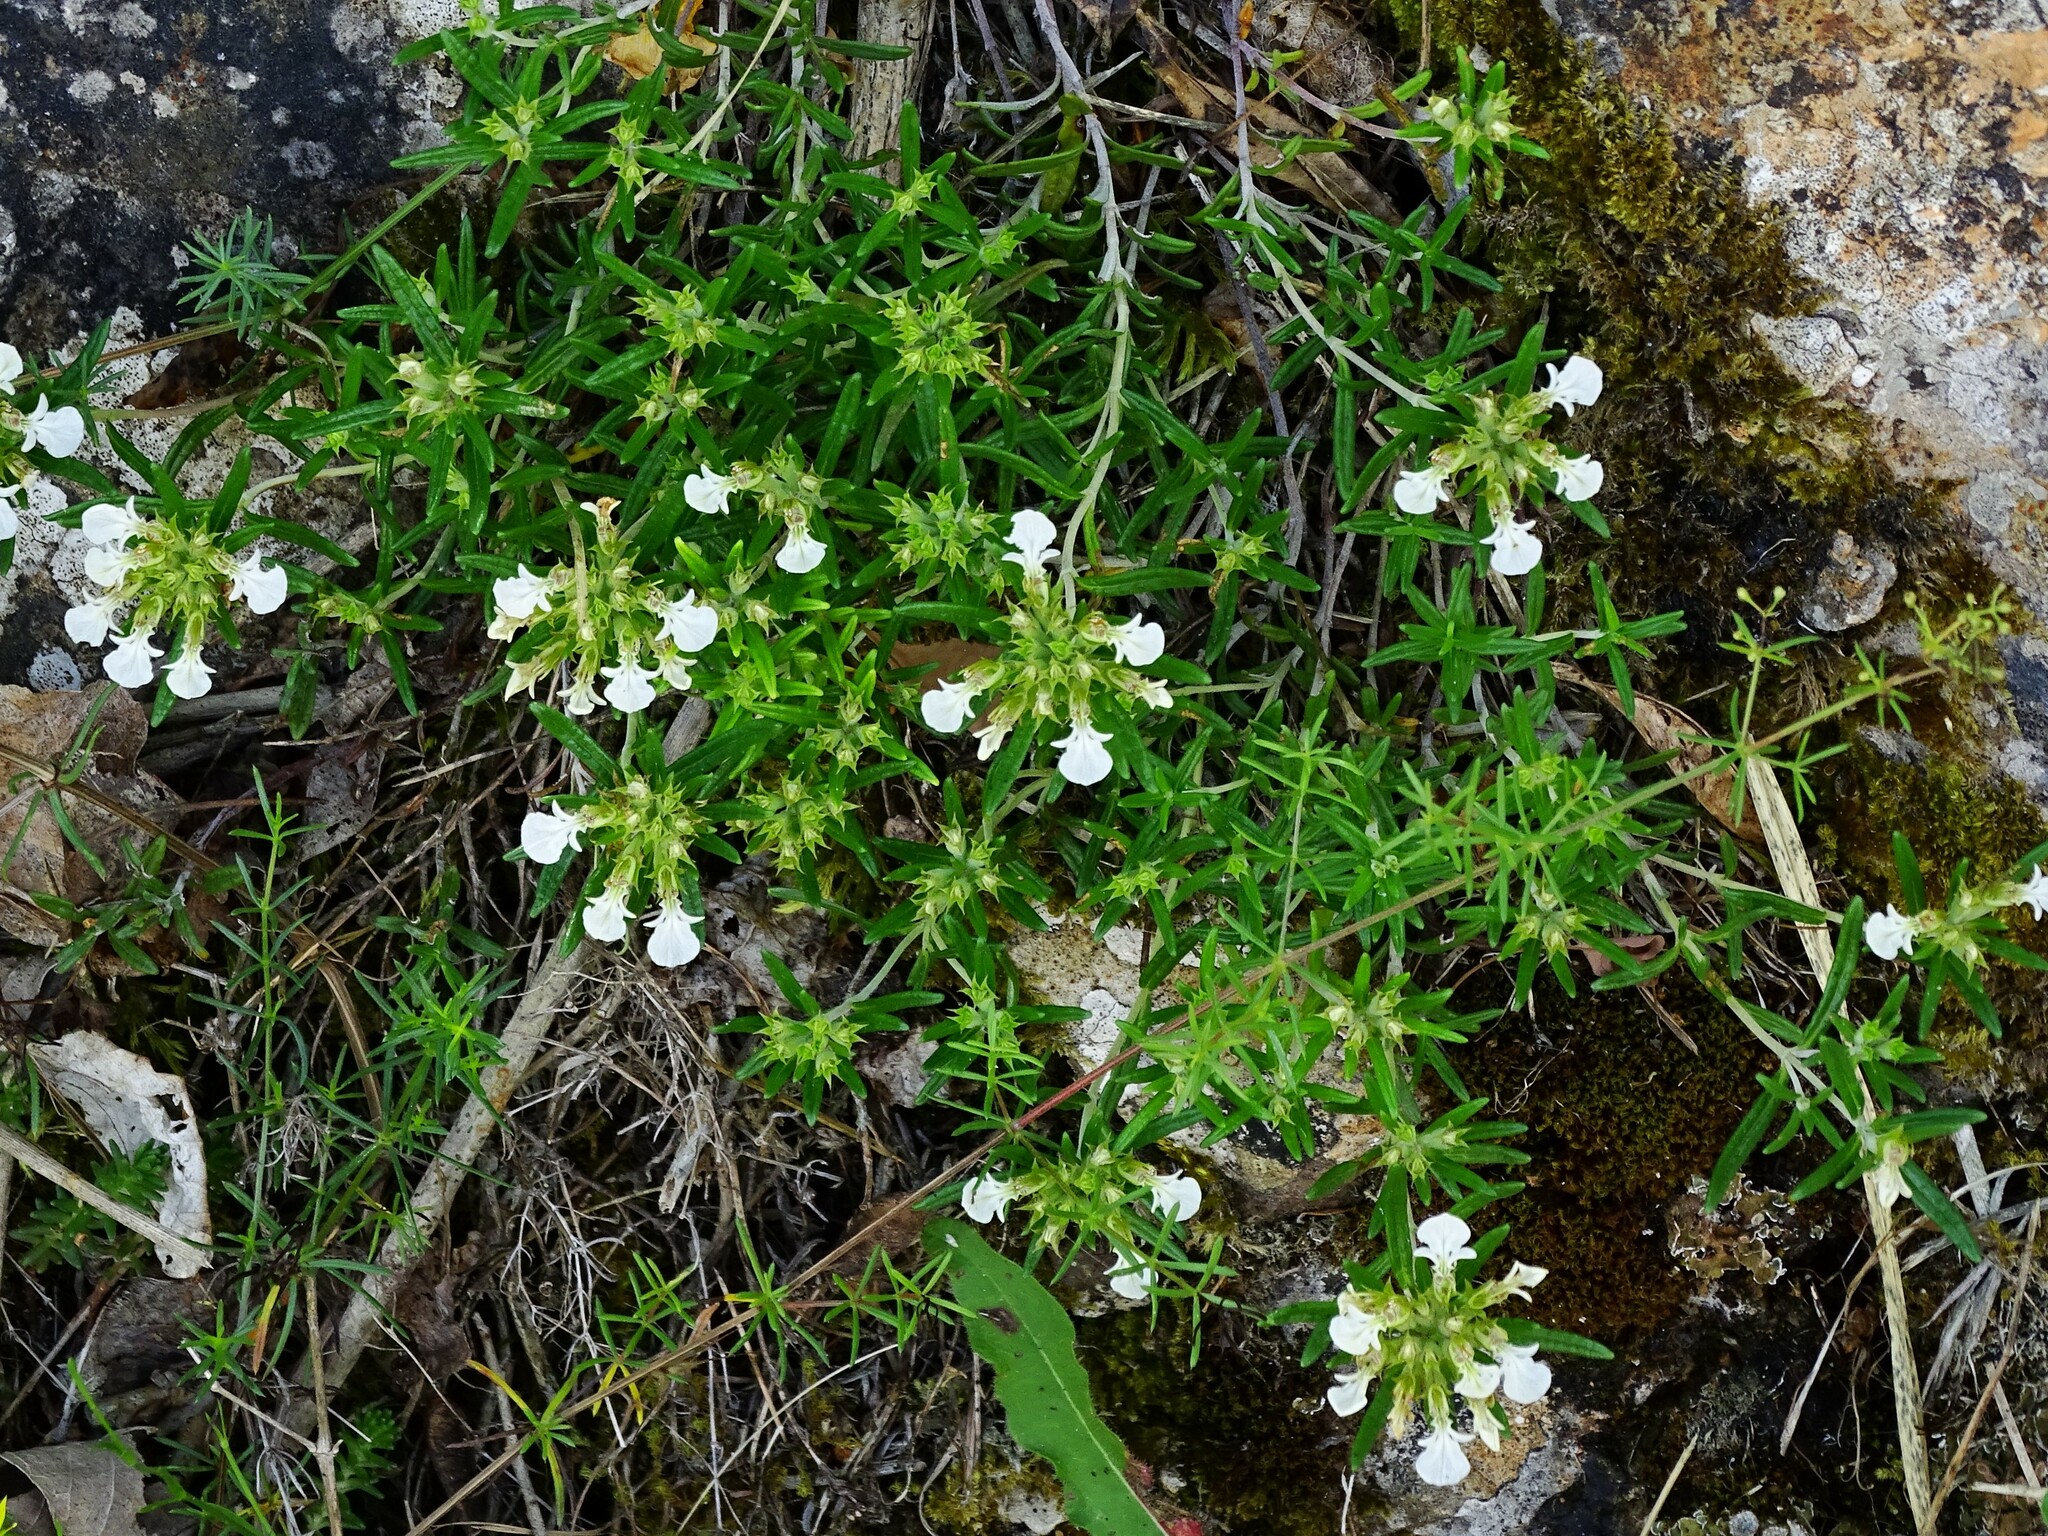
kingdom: Plantae
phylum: Tracheophyta
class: Magnoliopsida
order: Lamiales
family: Lamiaceae
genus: Teucrium
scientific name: Teucrium montanum
